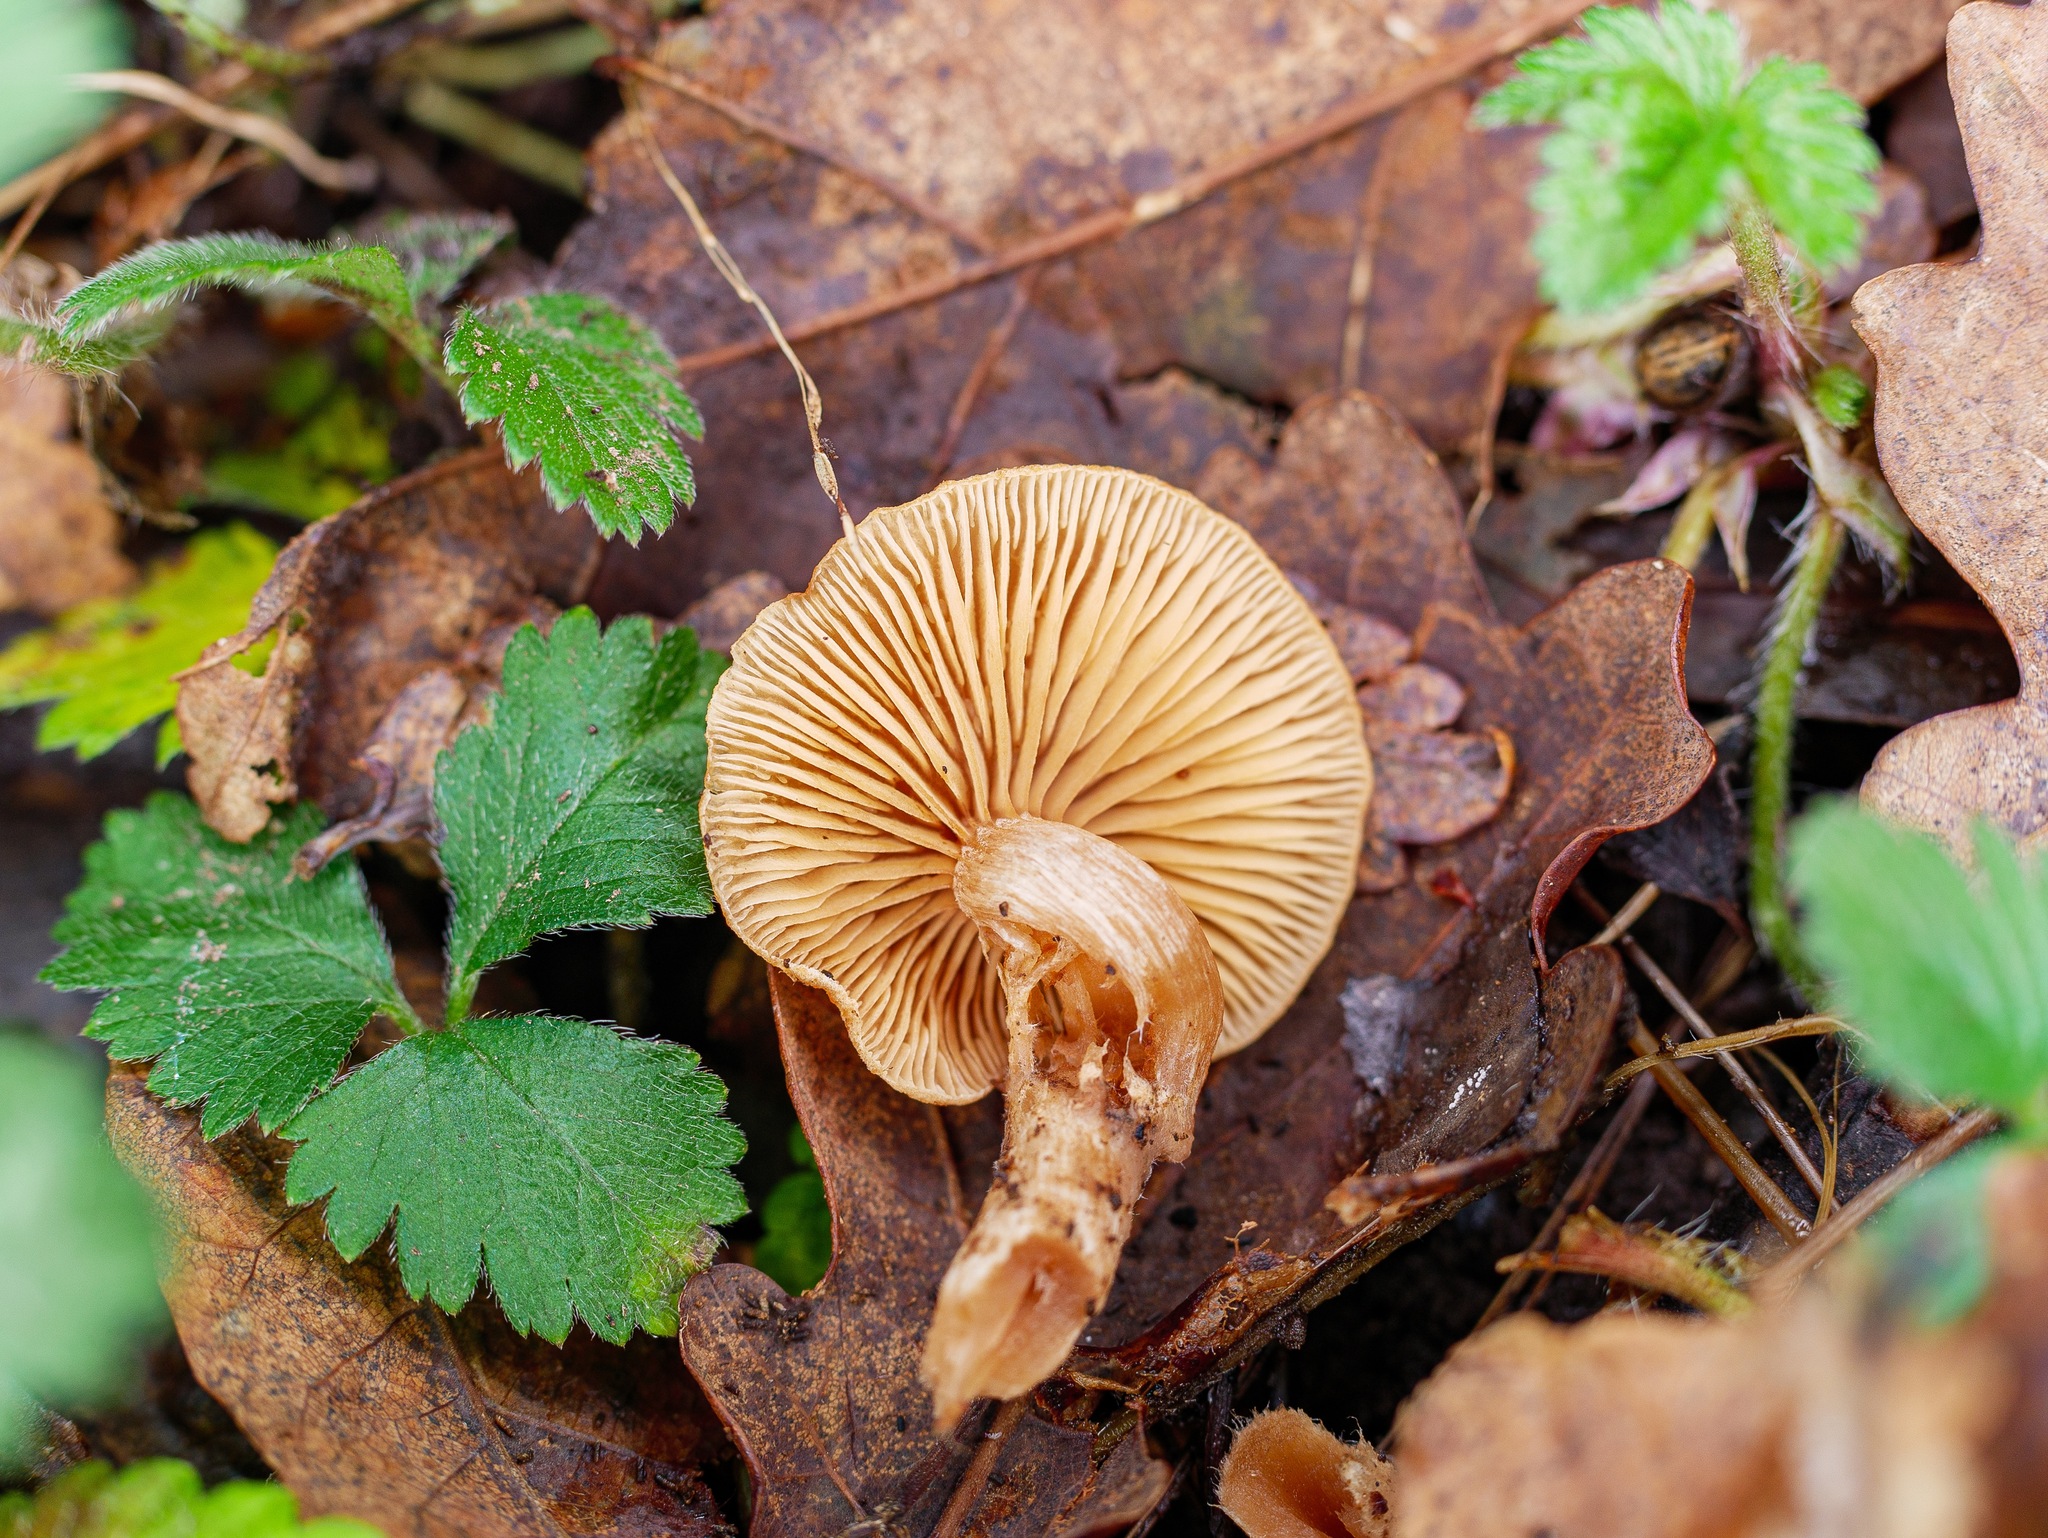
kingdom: Fungi
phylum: Basidiomycota
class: Agaricomycetes
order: Agaricales
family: Tubariaceae
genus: Tubaria
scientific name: Tubaria furfuracea
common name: Scurfy twiglet
